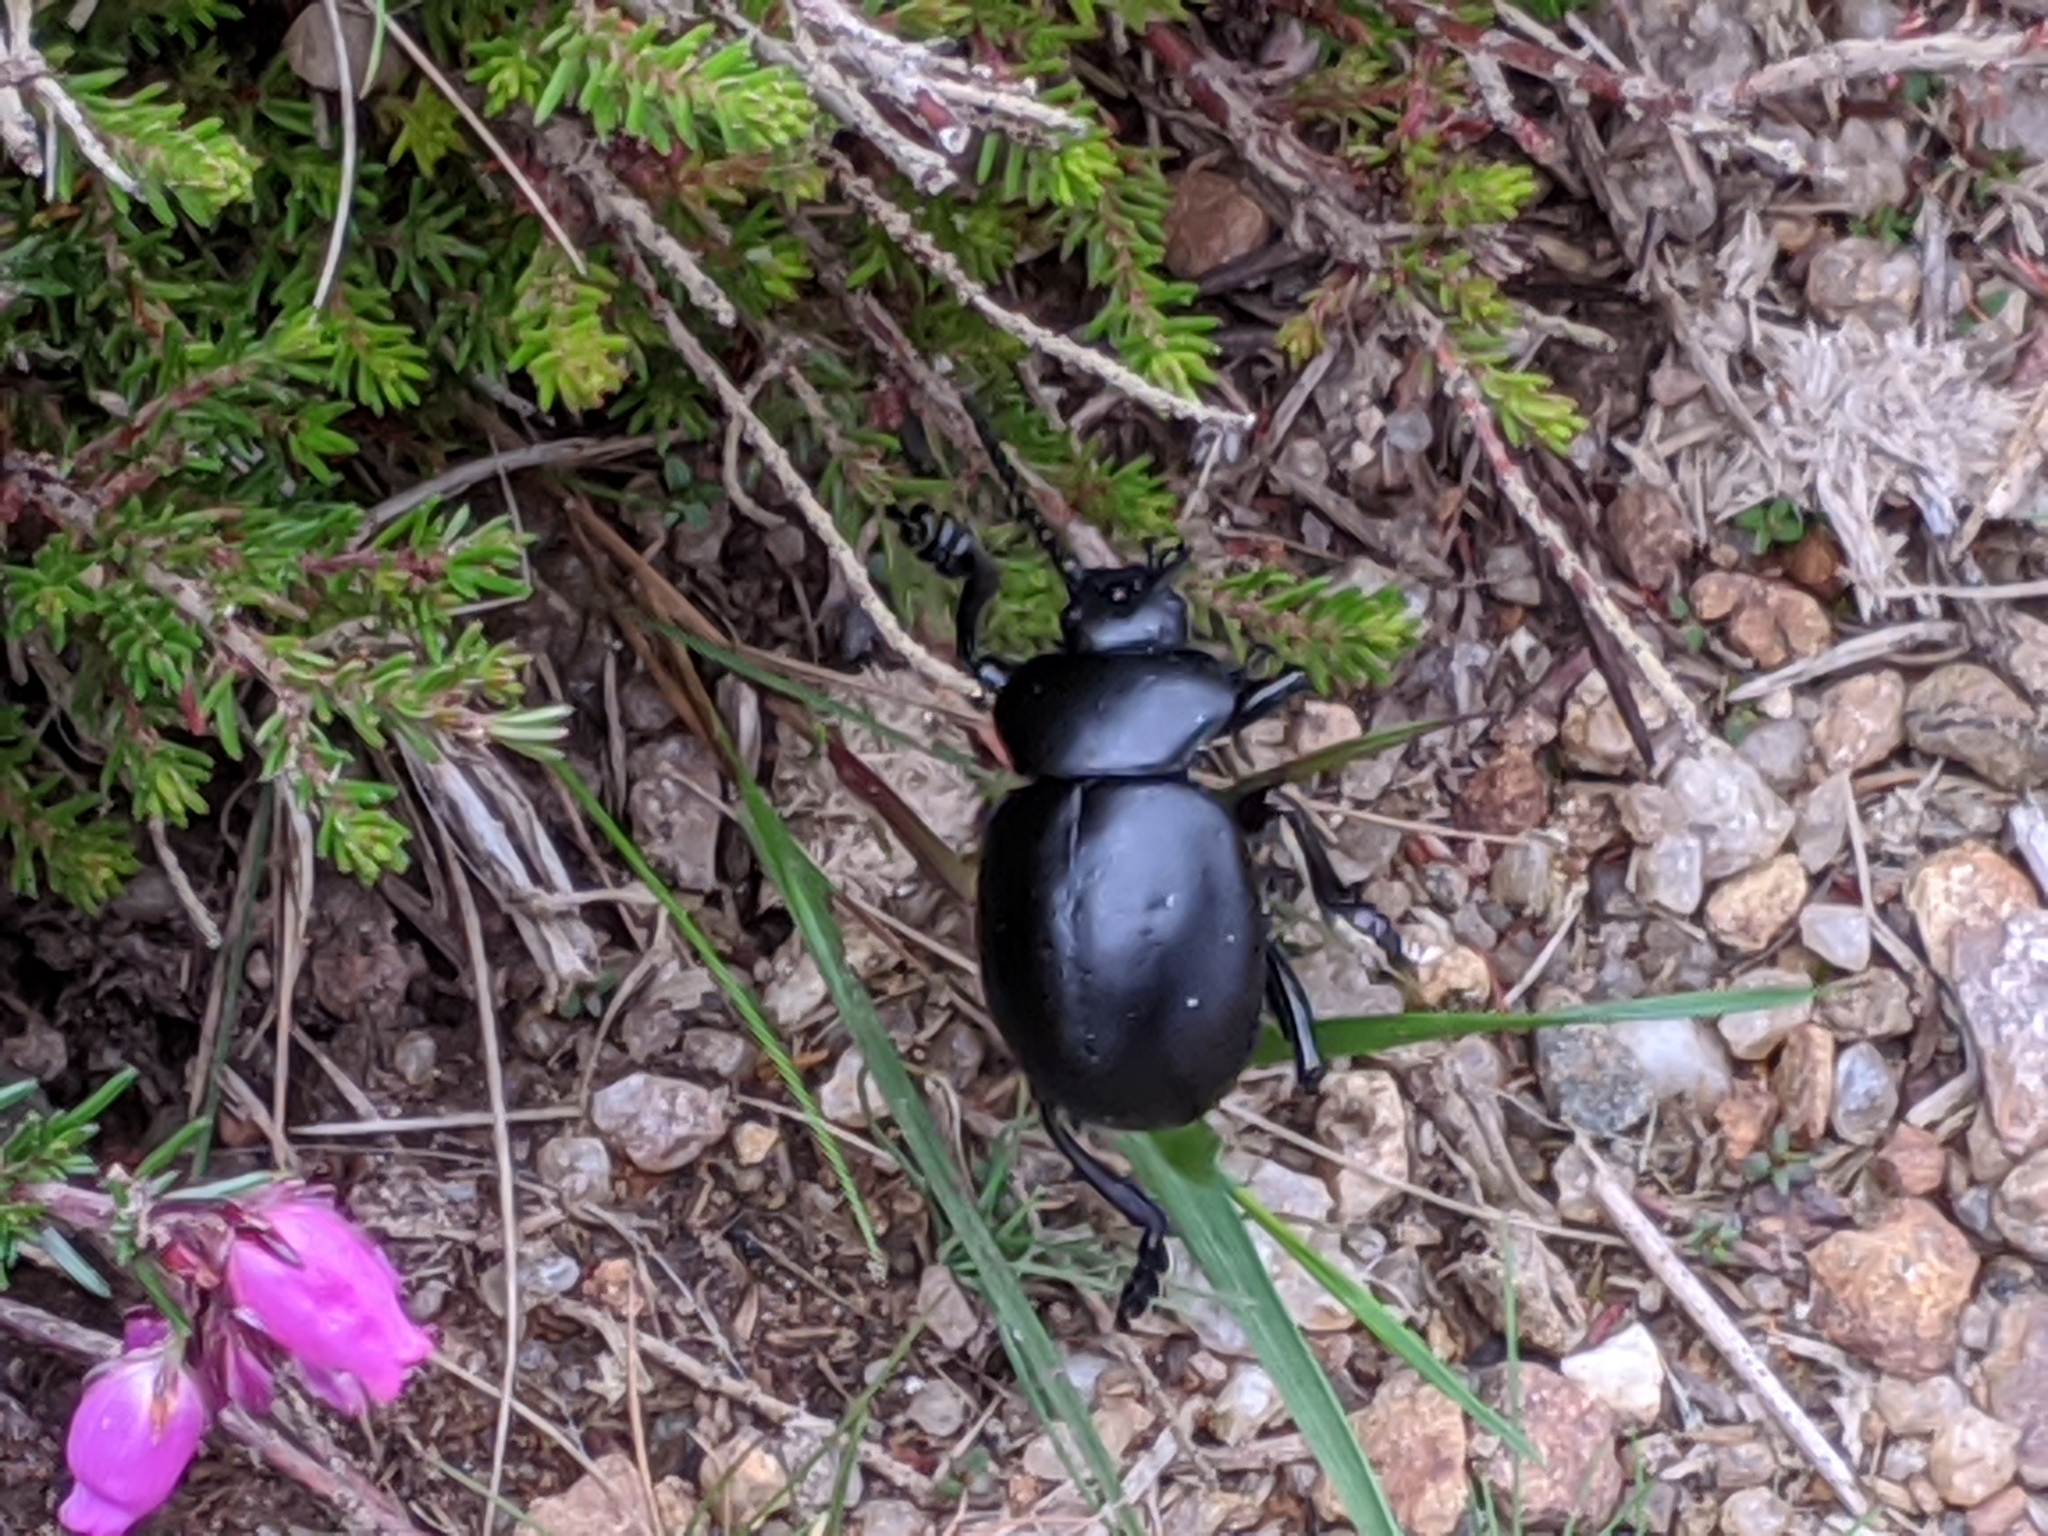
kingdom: Animalia
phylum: Arthropoda
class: Insecta
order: Coleoptera
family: Chrysomelidae
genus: Timarcha
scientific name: Timarcha tenebricosa
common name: Bloody-nosed beetle
